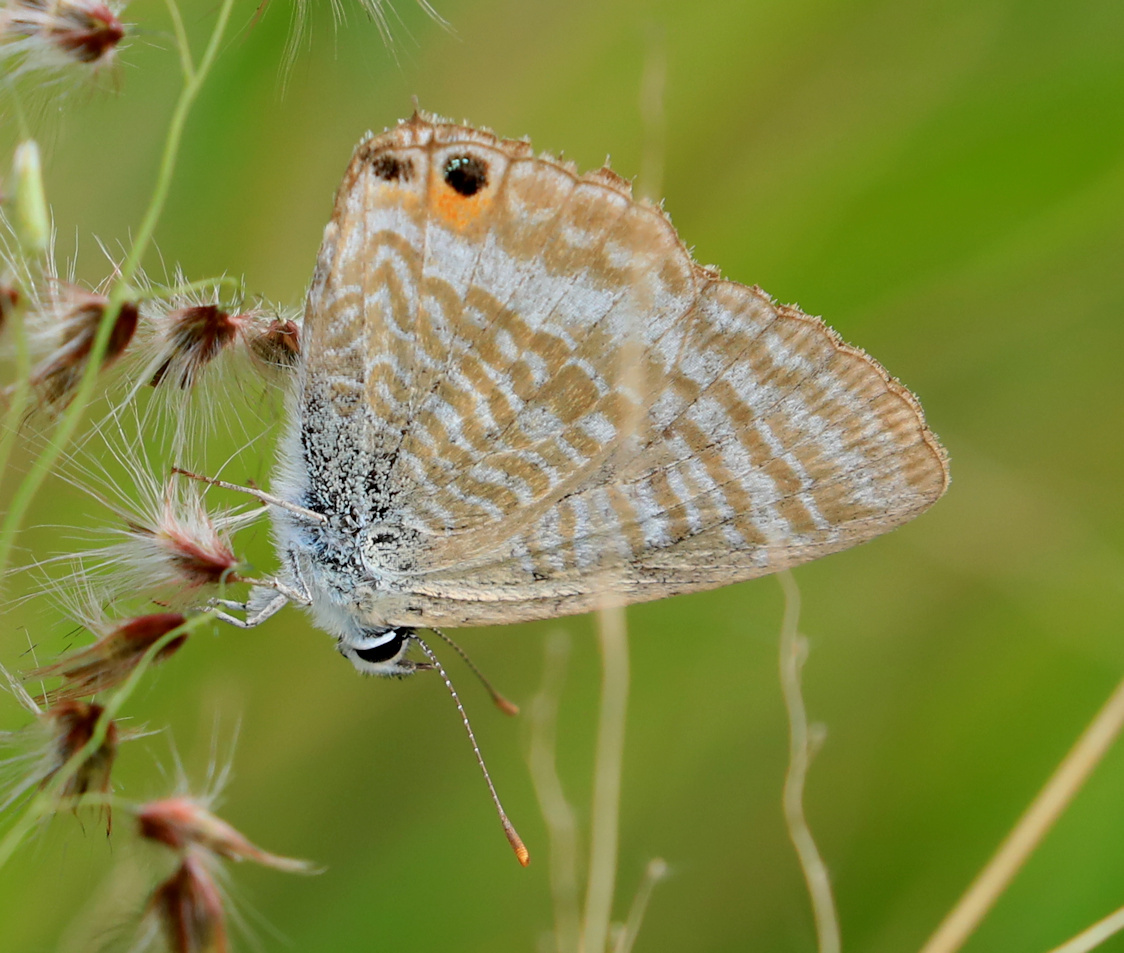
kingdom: Animalia
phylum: Arthropoda
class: Insecta
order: Lepidoptera
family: Lycaenidae
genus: Lampides
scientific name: Lampides boeticus
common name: Long-tailed blue
